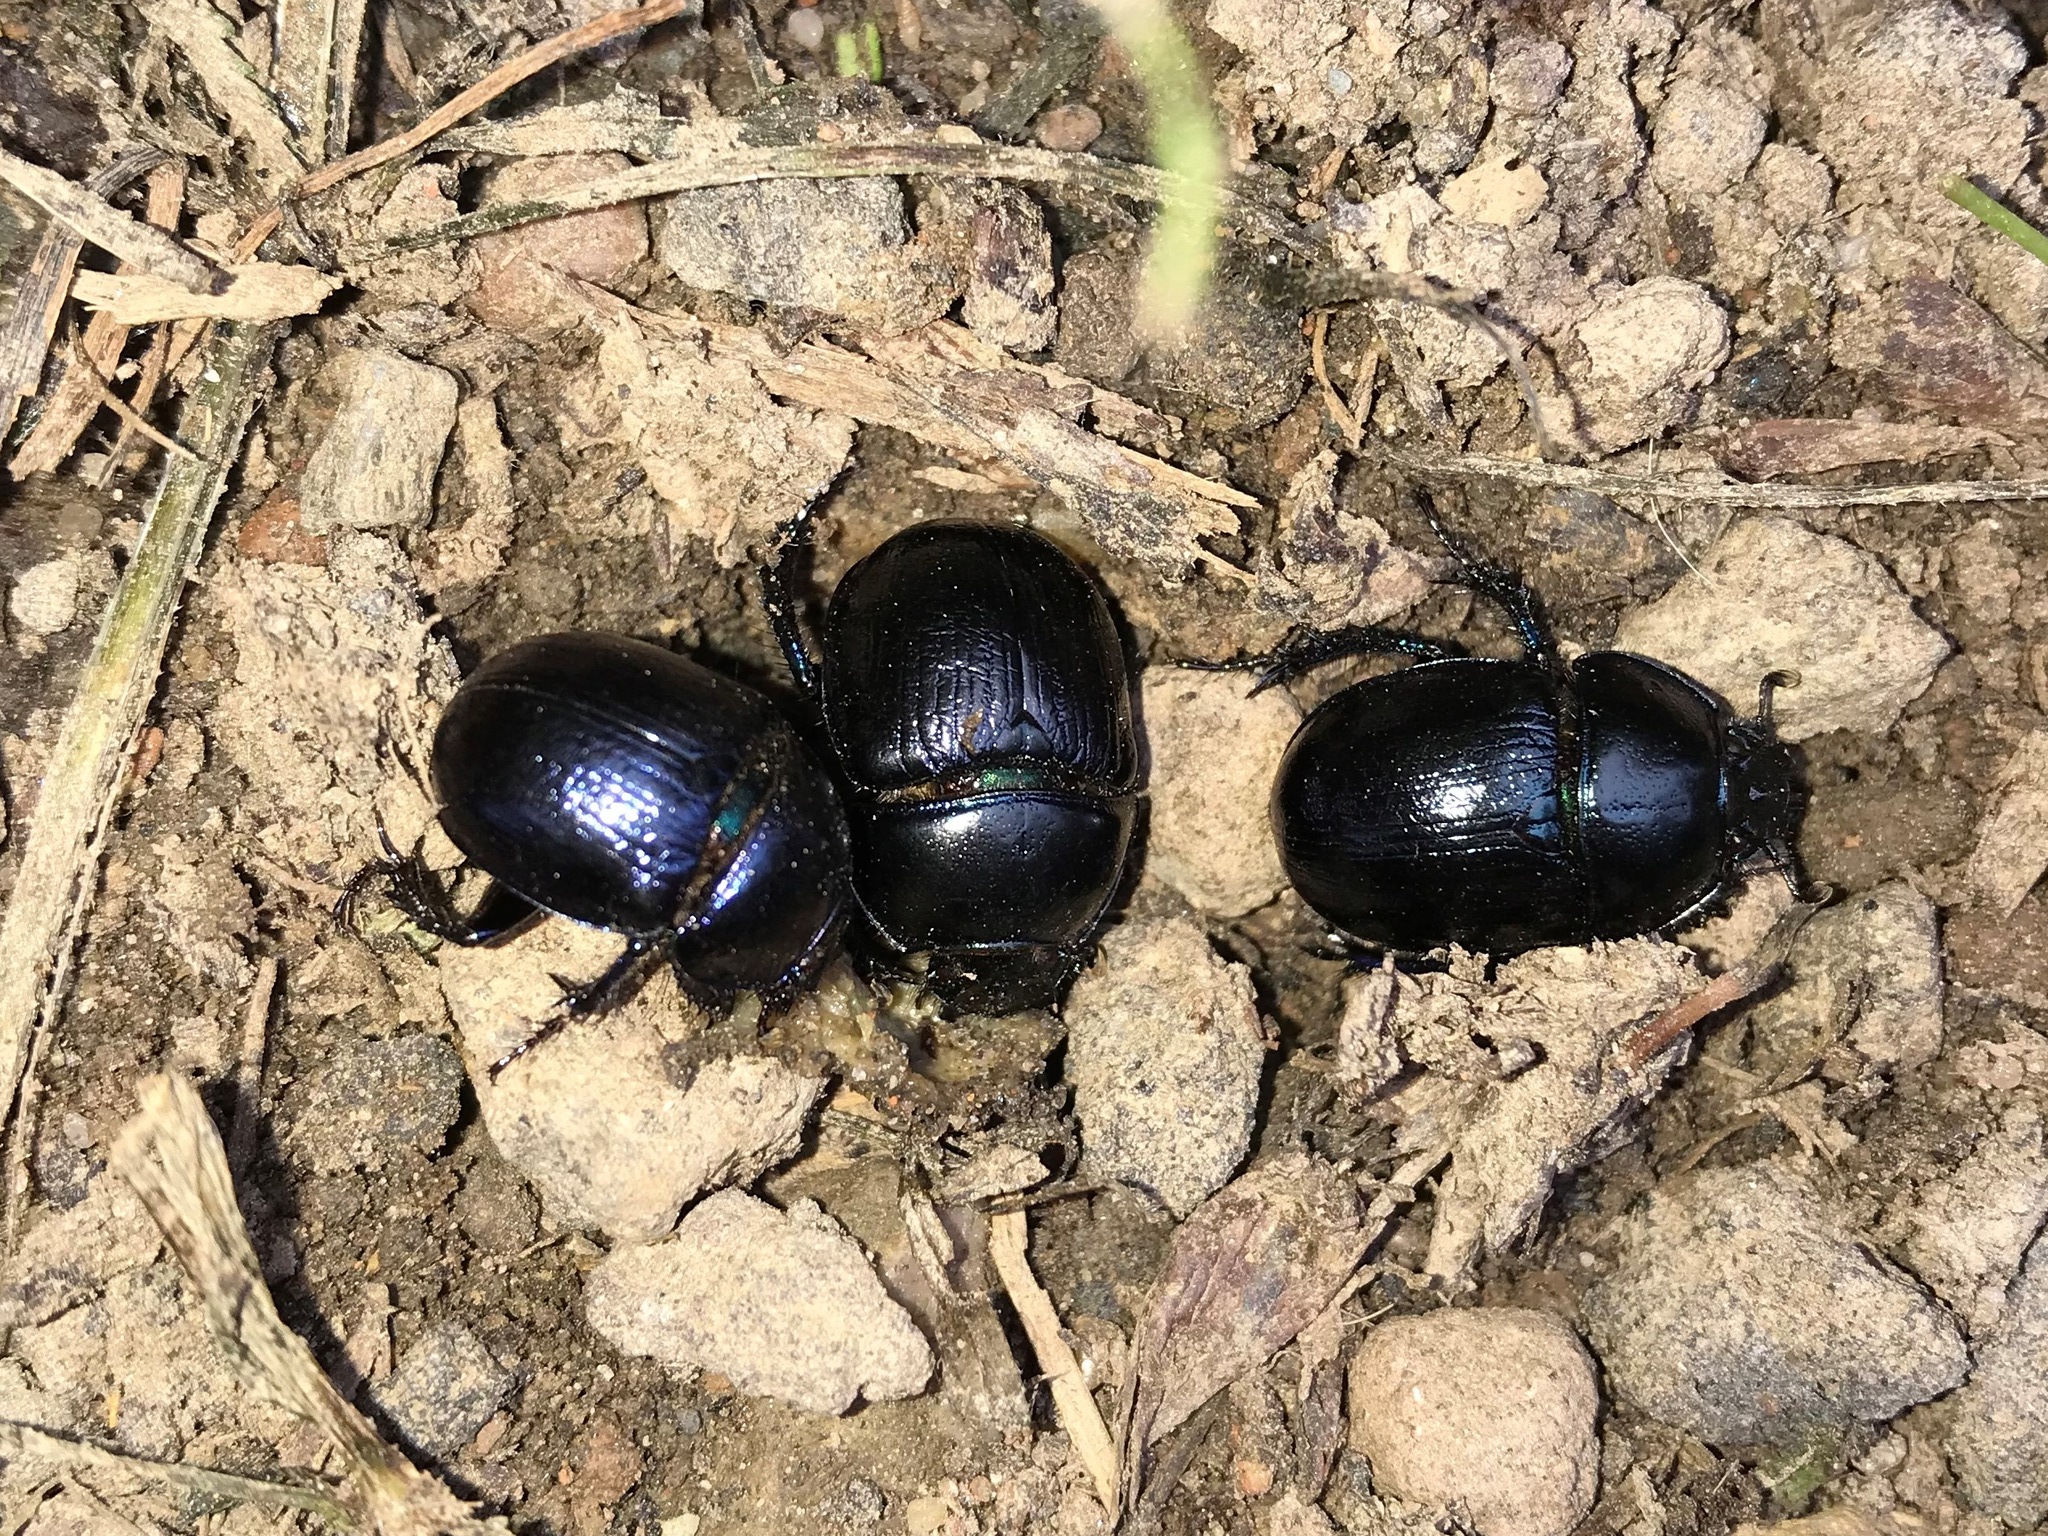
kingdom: Animalia
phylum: Arthropoda
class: Insecta
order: Coleoptera
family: Geotrupidae
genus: Anoplotrupes
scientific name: Anoplotrupes stercorosus
